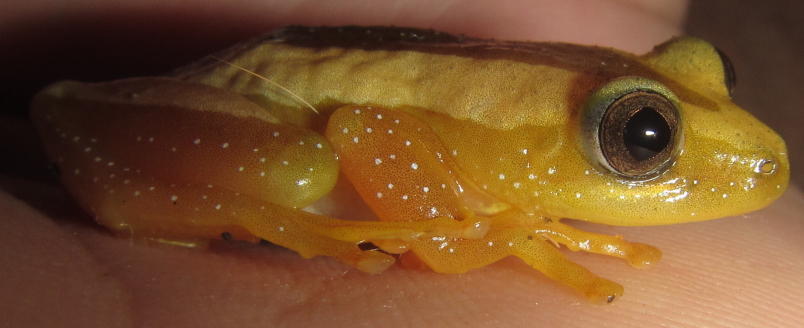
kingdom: Animalia
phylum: Chordata
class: Amphibia
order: Anura
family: Hyperoliidae
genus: Afrixalus
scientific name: Afrixalus fornasini
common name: Fornasini's spiny reed frog
